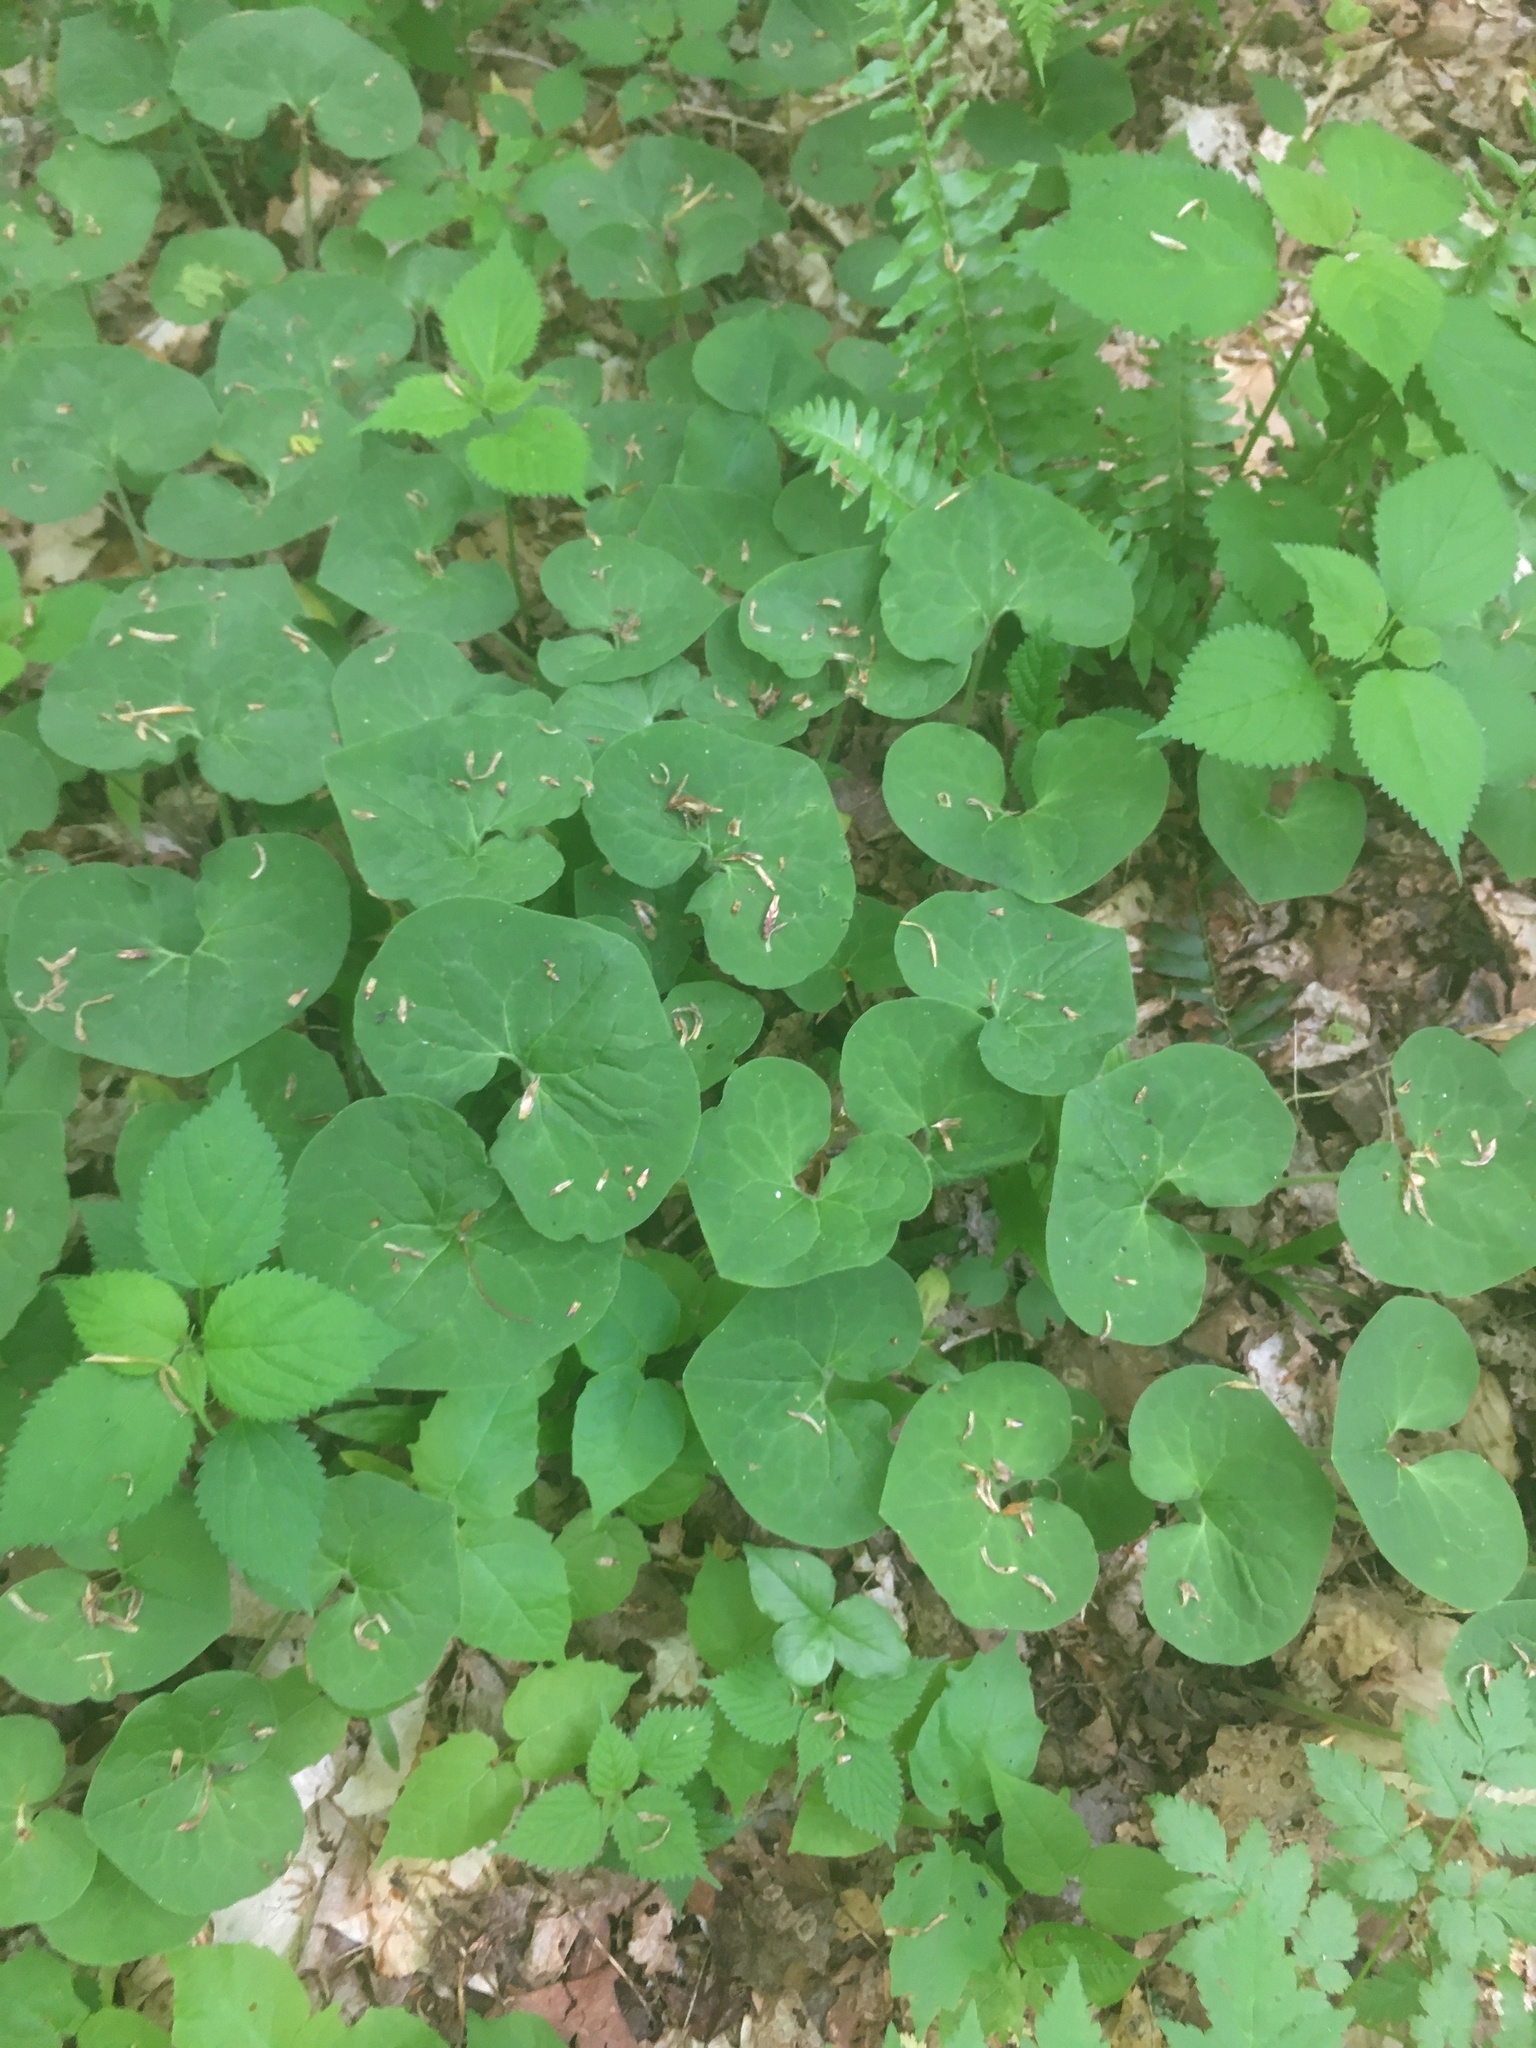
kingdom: Plantae
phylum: Tracheophyta
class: Magnoliopsida
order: Piperales
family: Aristolochiaceae
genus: Asarum
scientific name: Asarum canadense
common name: Wild ginger
